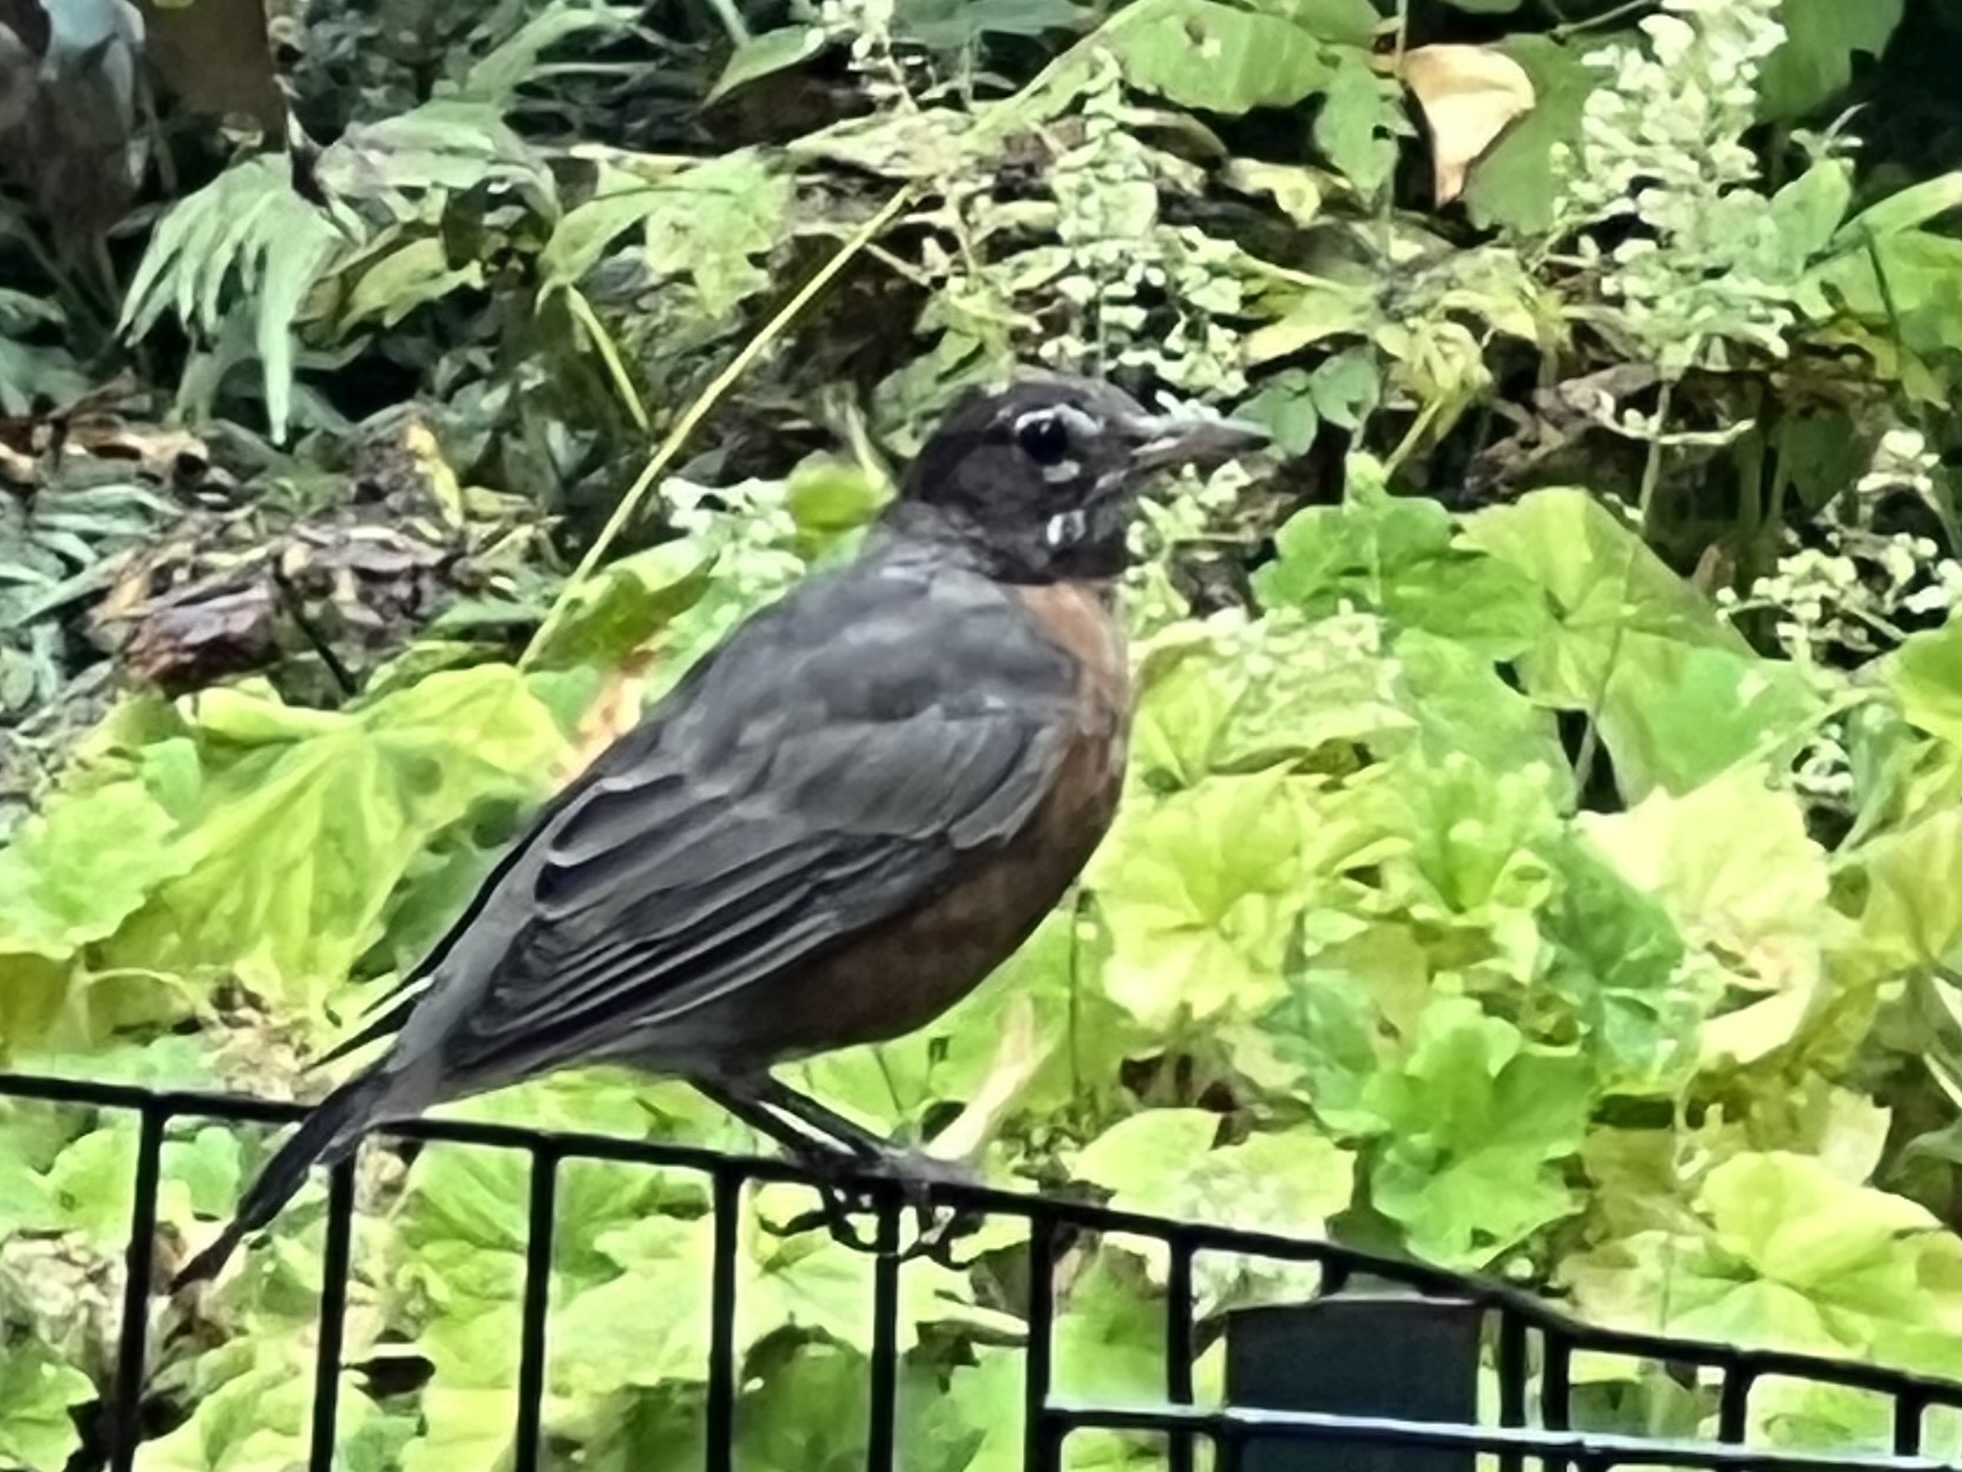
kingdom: Animalia
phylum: Chordata
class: Aves
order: Passeriformes
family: Turdidae
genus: Turdus
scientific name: Turdus migratorius
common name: American robin
